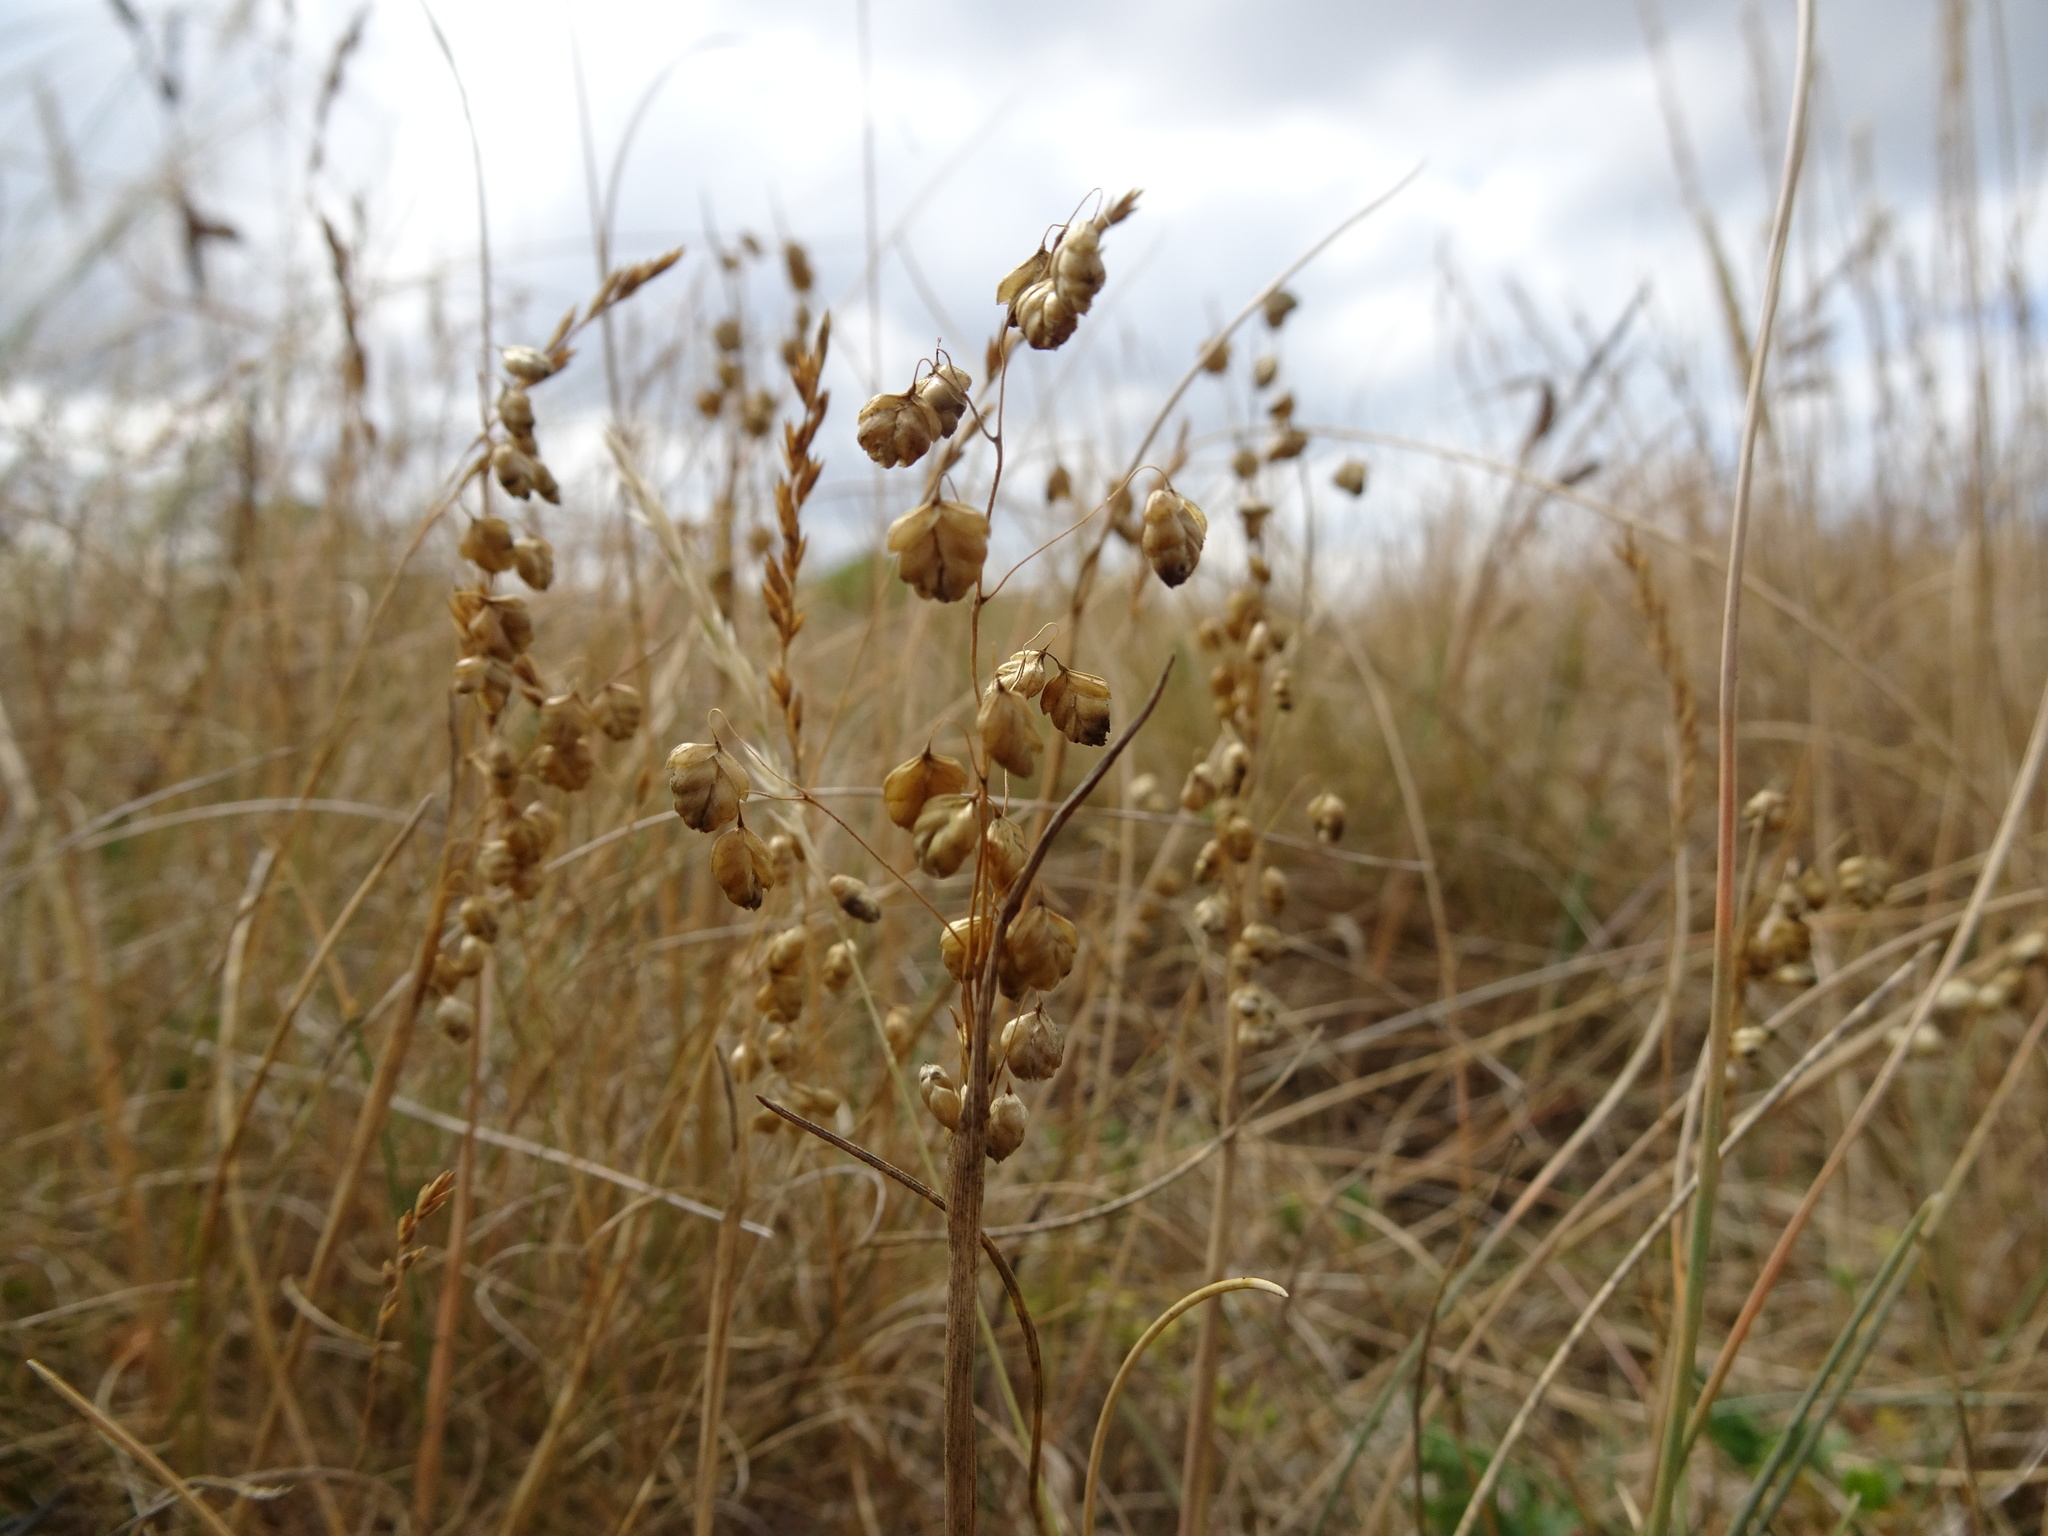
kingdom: Plantae
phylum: Tracheophyta
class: Liliopsida
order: Poales
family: Poaceae
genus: Briza
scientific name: Briza media
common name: Quaking grass
